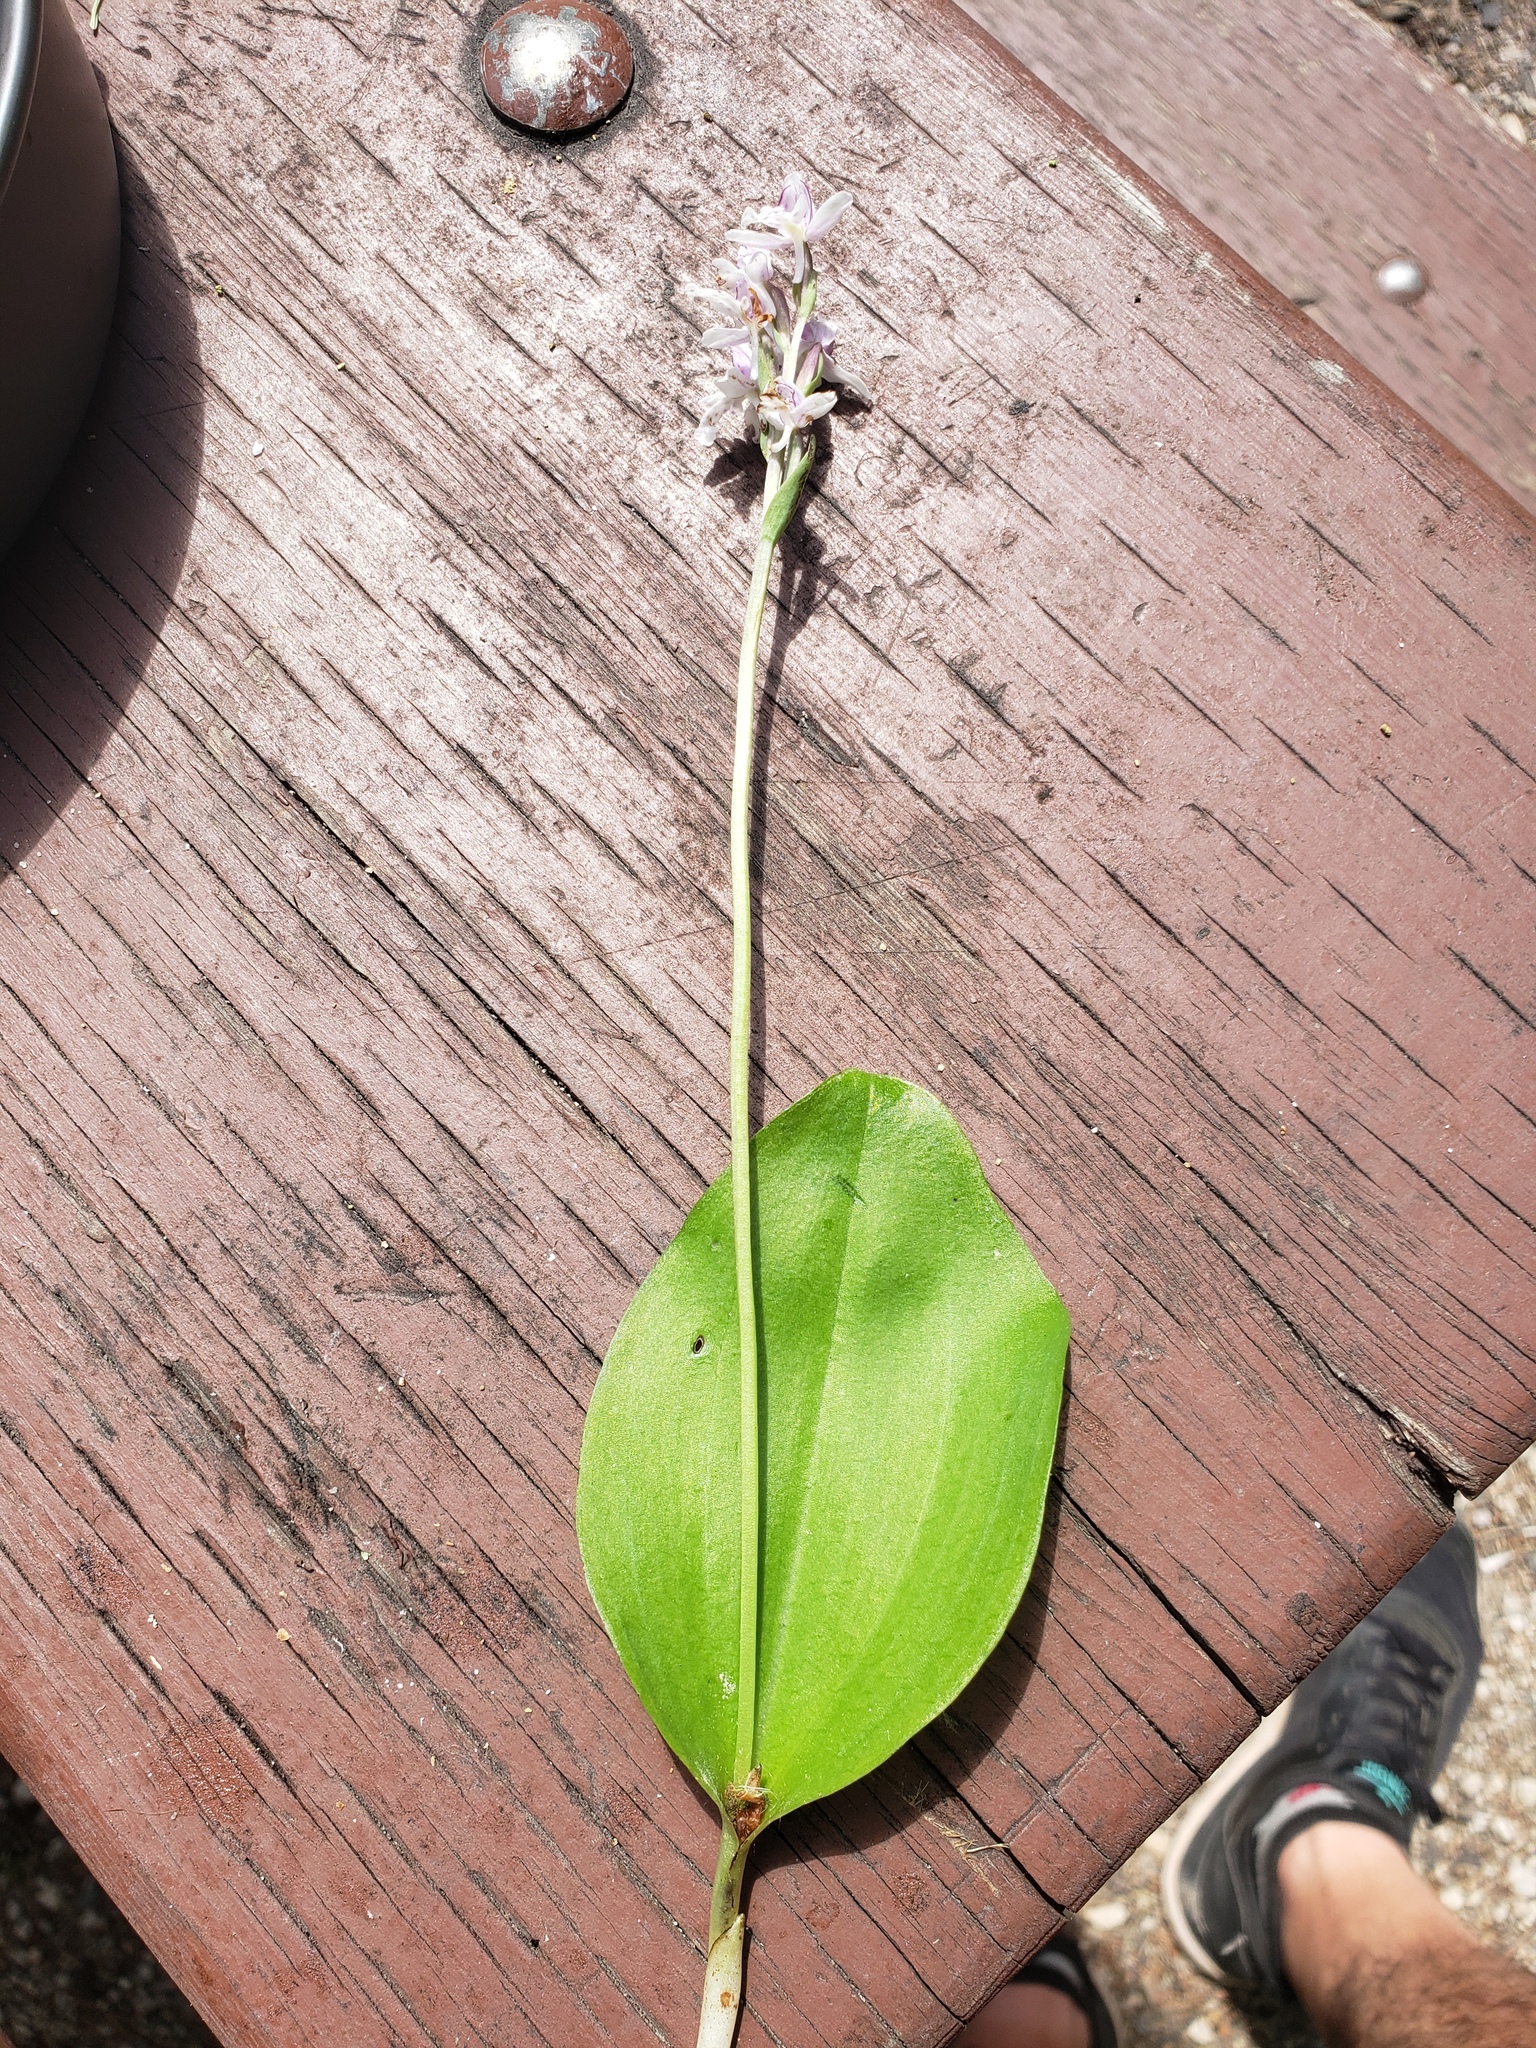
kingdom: Plantae
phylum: Tracheophyta
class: Liliopsida
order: Asparagales
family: Orchidaceae
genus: Galearis
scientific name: Galearis rotundifolia
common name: One-leaved orchis
